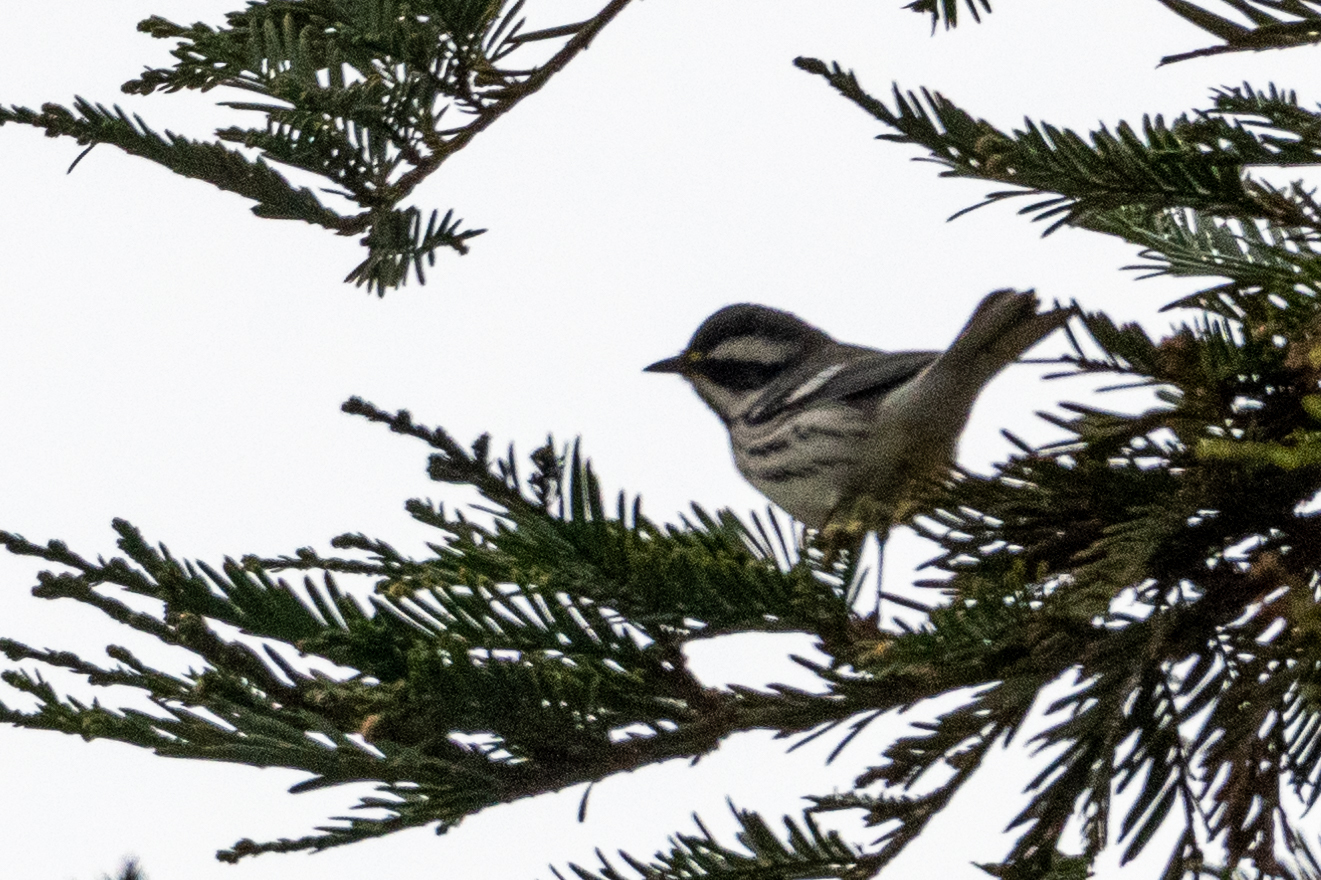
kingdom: Animalia
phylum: Chordata
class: Aves
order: Passeriformes
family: Parulidae
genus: Setophaga
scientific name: Setophaga nigrescens
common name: Black-throated gray warbler
